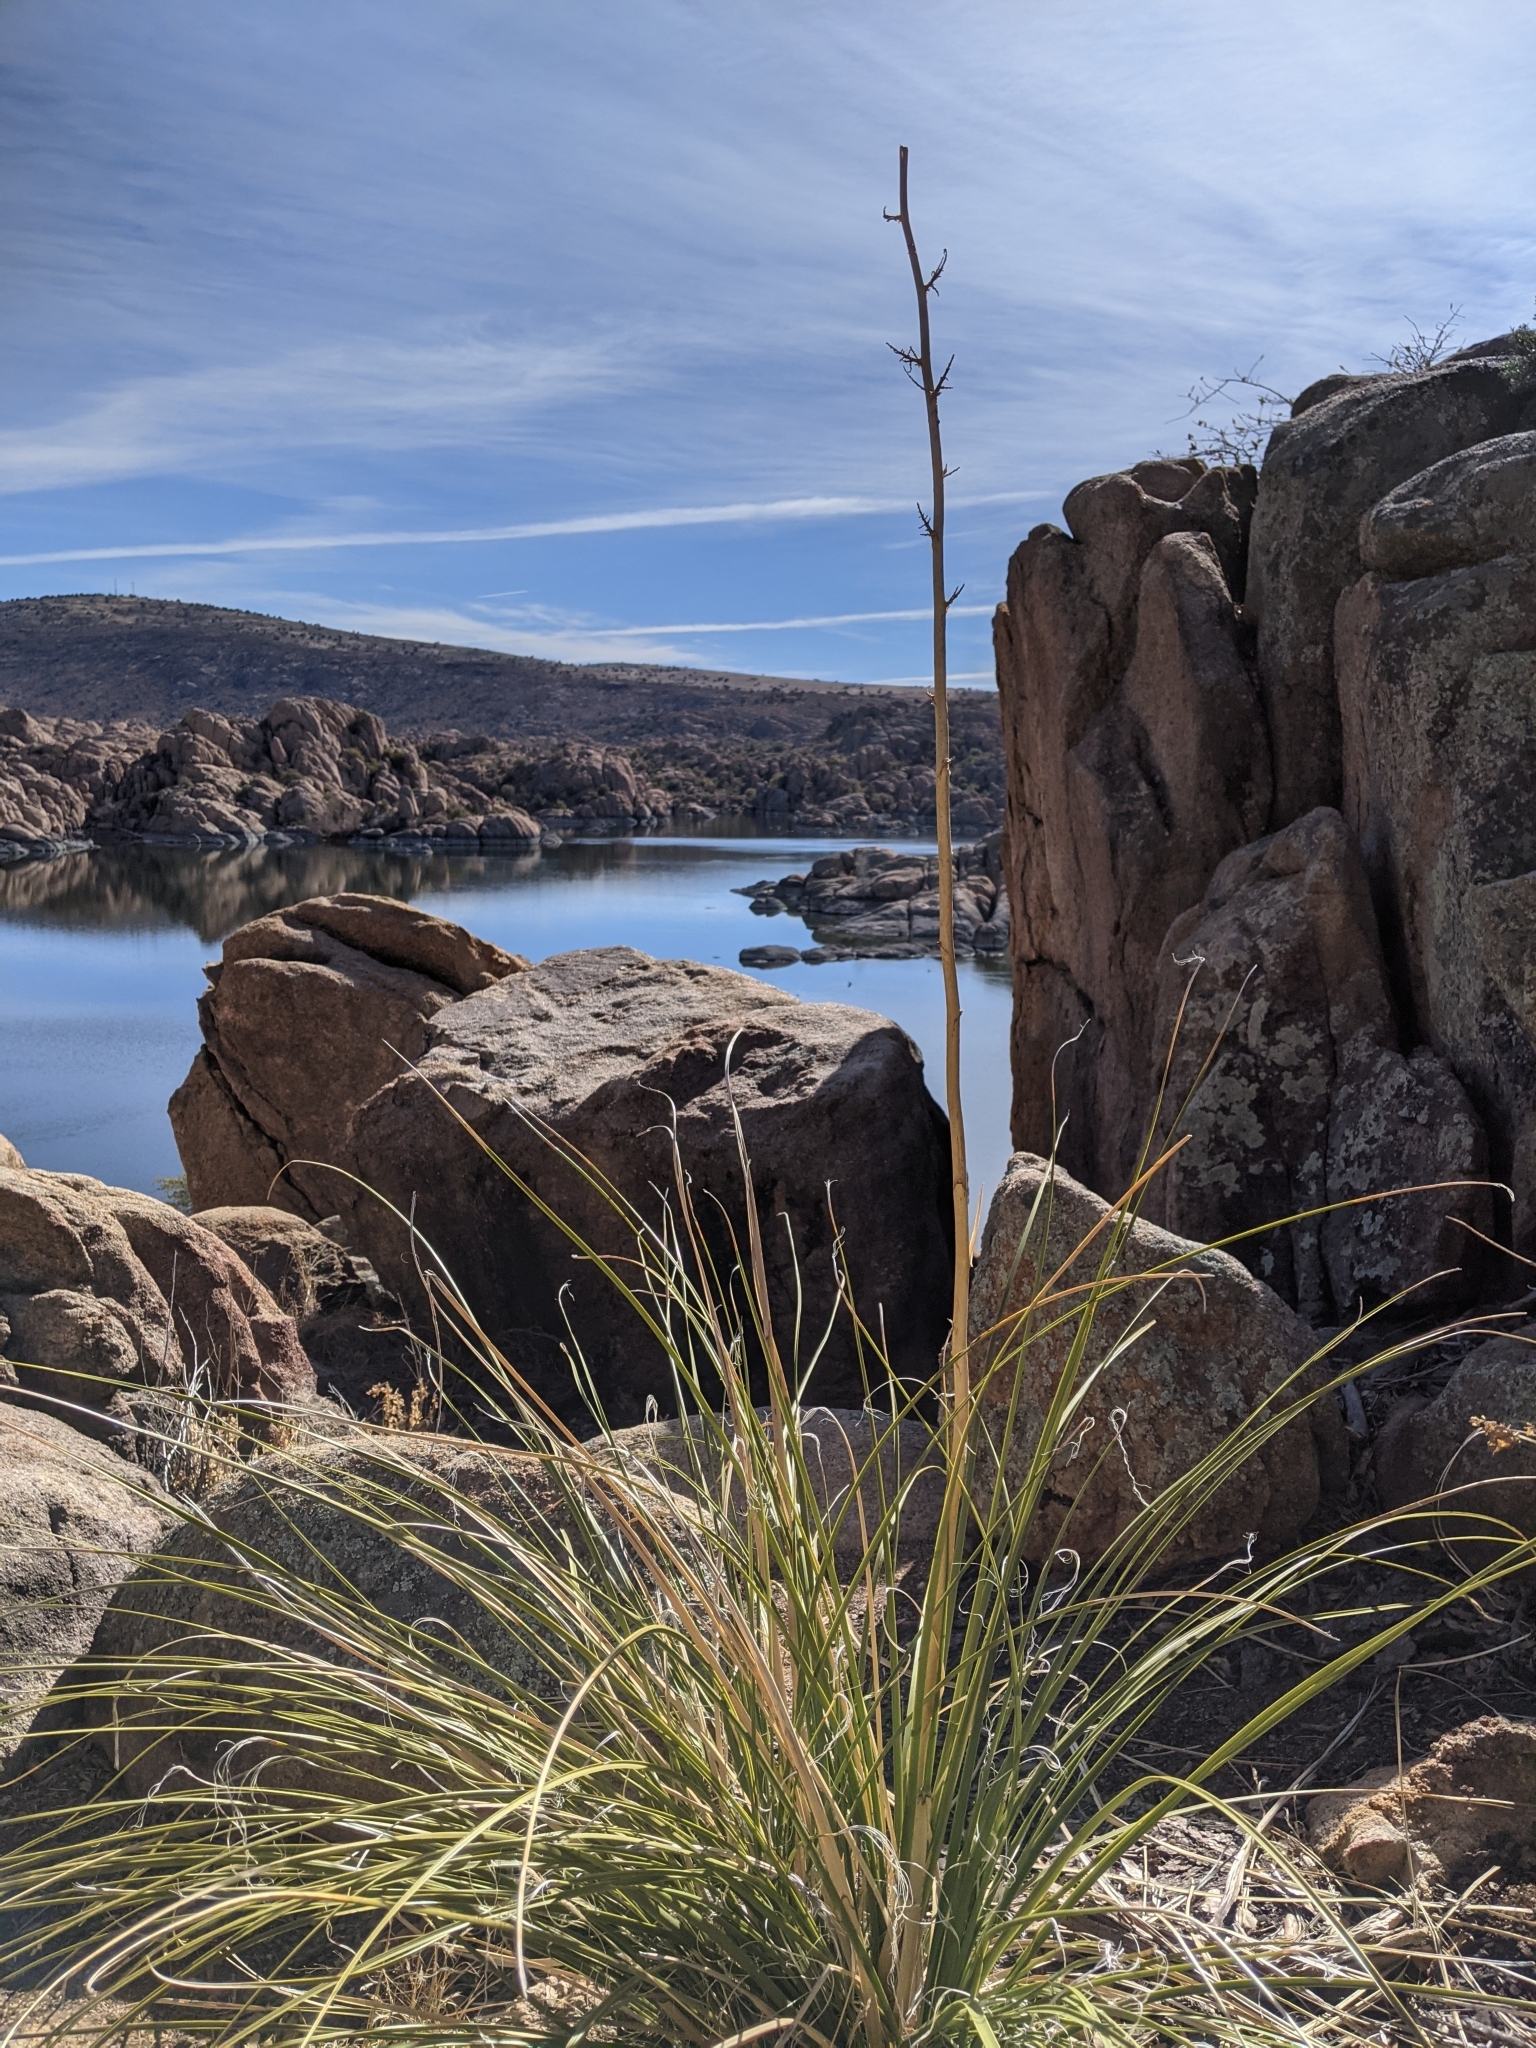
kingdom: Plantae
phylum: Tracheophyta
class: Liliopsida
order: Asparagales
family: Asparagaceae
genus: Nolina
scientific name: Nolina microcarpa
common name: Bear-grass
